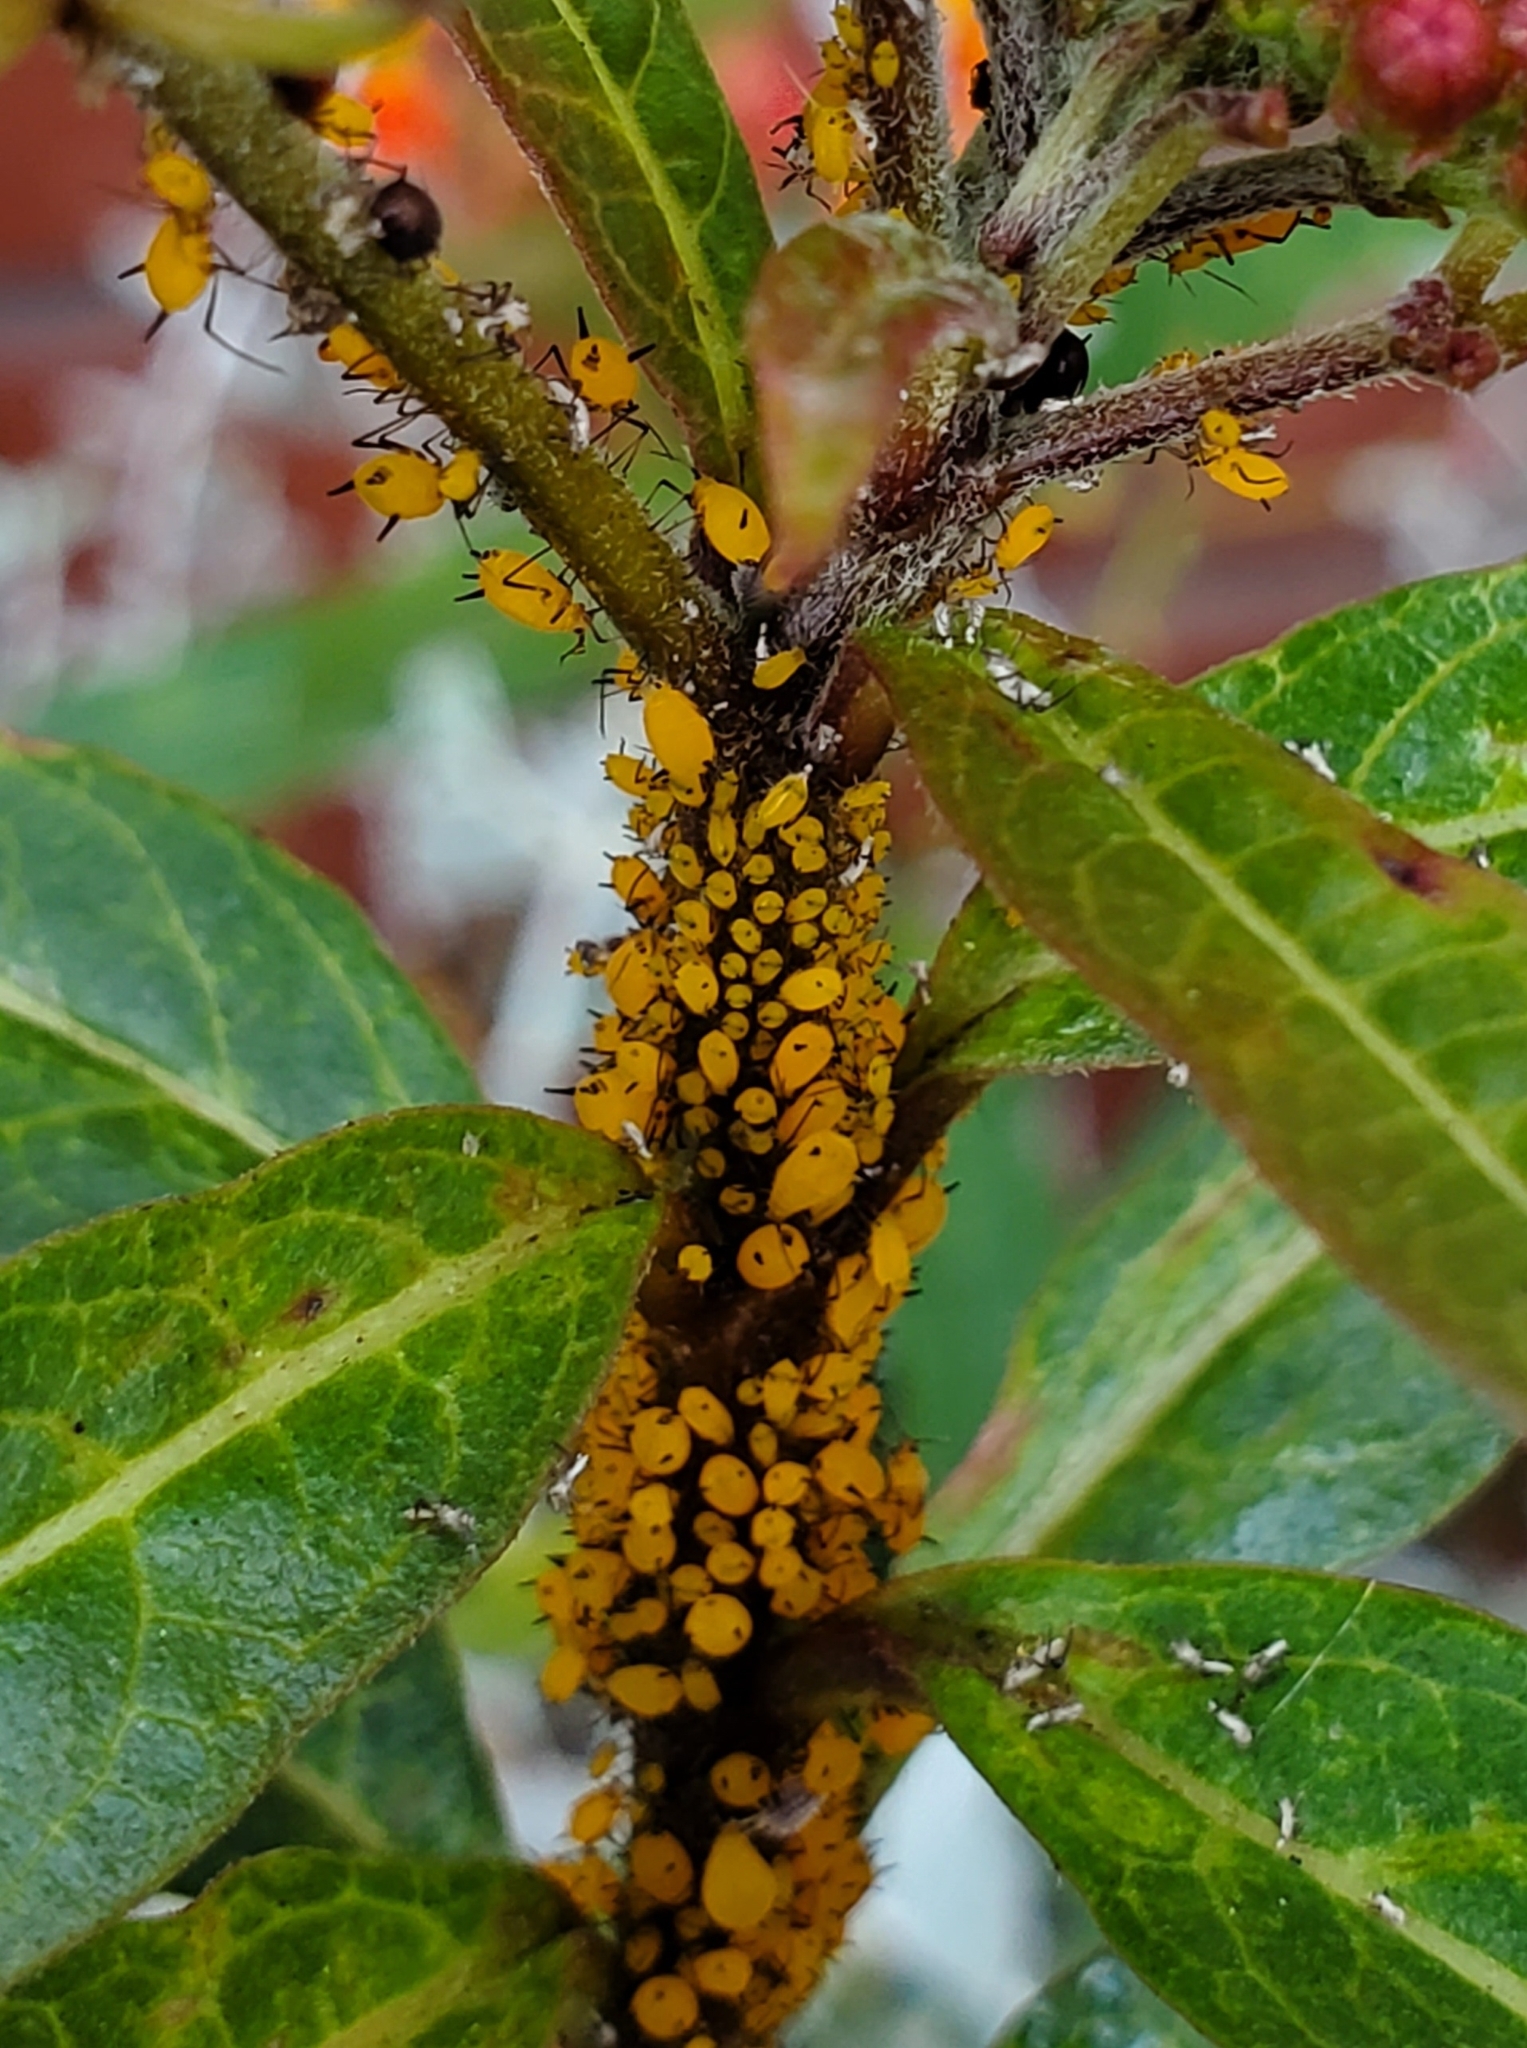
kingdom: Animalia
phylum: Arthropoda
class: Insecta
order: Hemiptera
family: Aphididae
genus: Aphis
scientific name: Aphis nerii
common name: Oleander aphid
